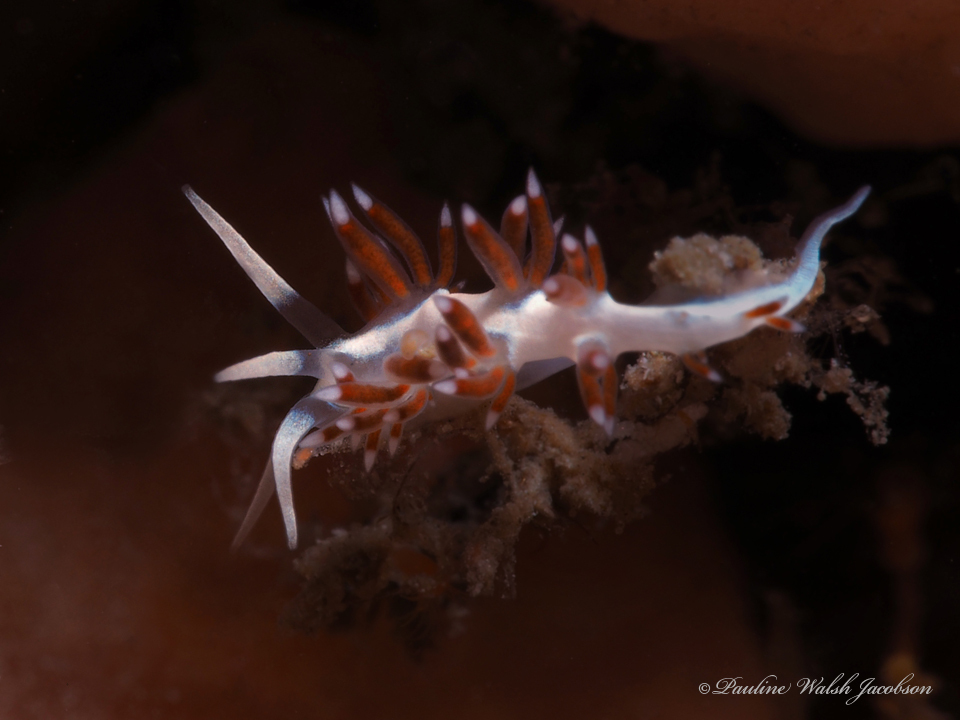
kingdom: Animalia
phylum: Mollusca
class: Gastropoda
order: Nudibranchia
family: Flabellinidae
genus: Flabellina
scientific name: Flabellina dushia
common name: Dushia flabellina
